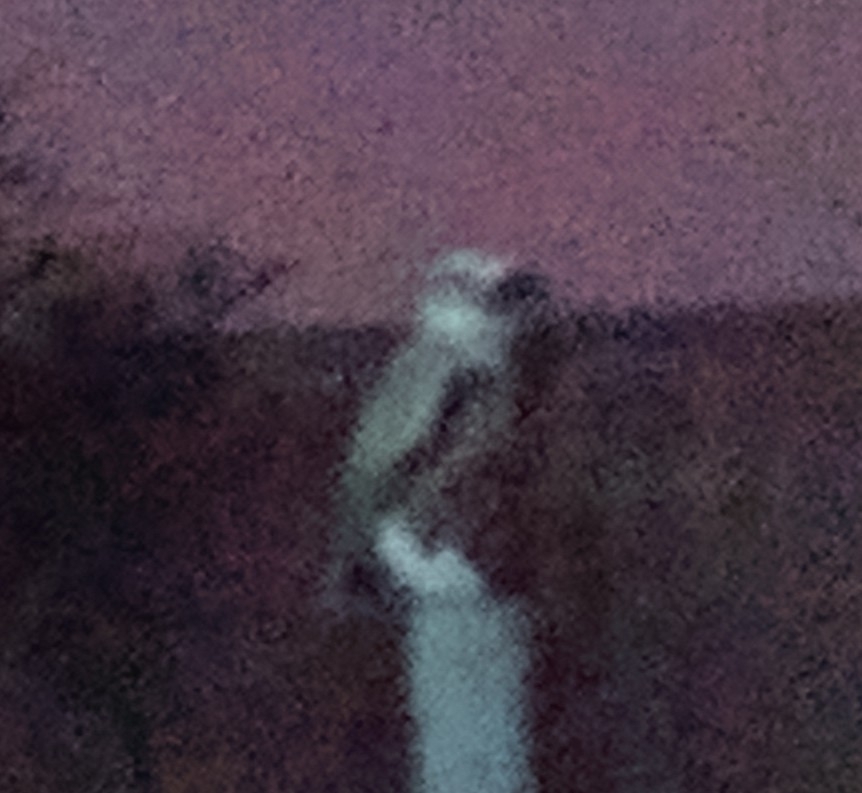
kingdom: Animalia
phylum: Chordata
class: Aves
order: Strigiformes
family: Strigidae
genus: Athene
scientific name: Athene cunicularia
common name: Burrowing owl
